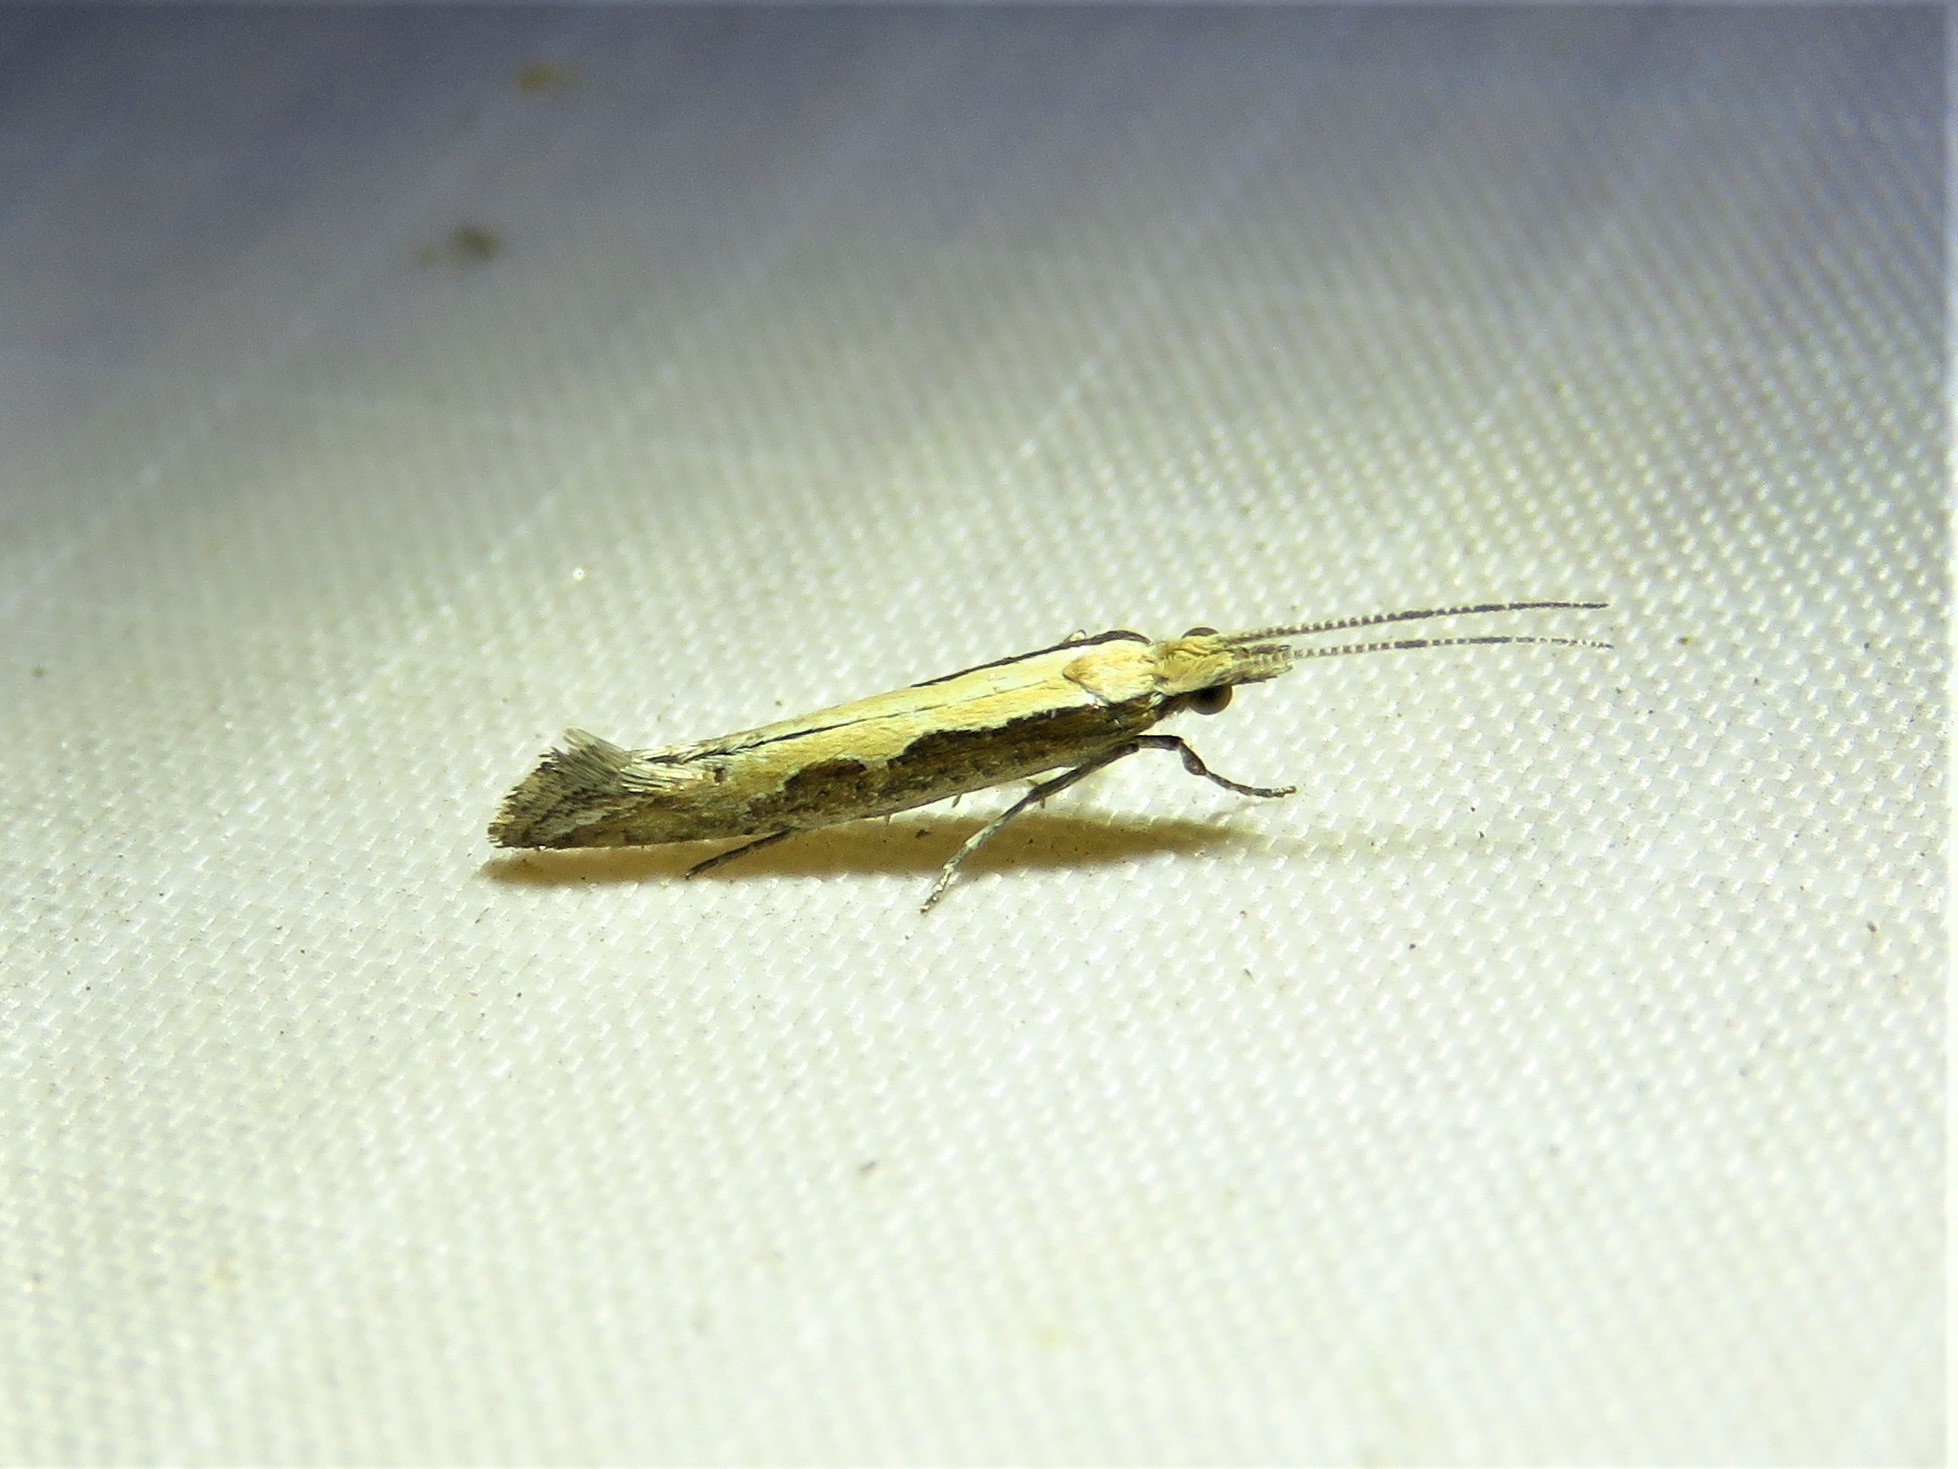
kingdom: Animalia
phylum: Arthropoda
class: Insecta
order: Lepidoptera
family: Plutellidae
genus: Plutella
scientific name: Plutella xylostella
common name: Diamond-back moth
